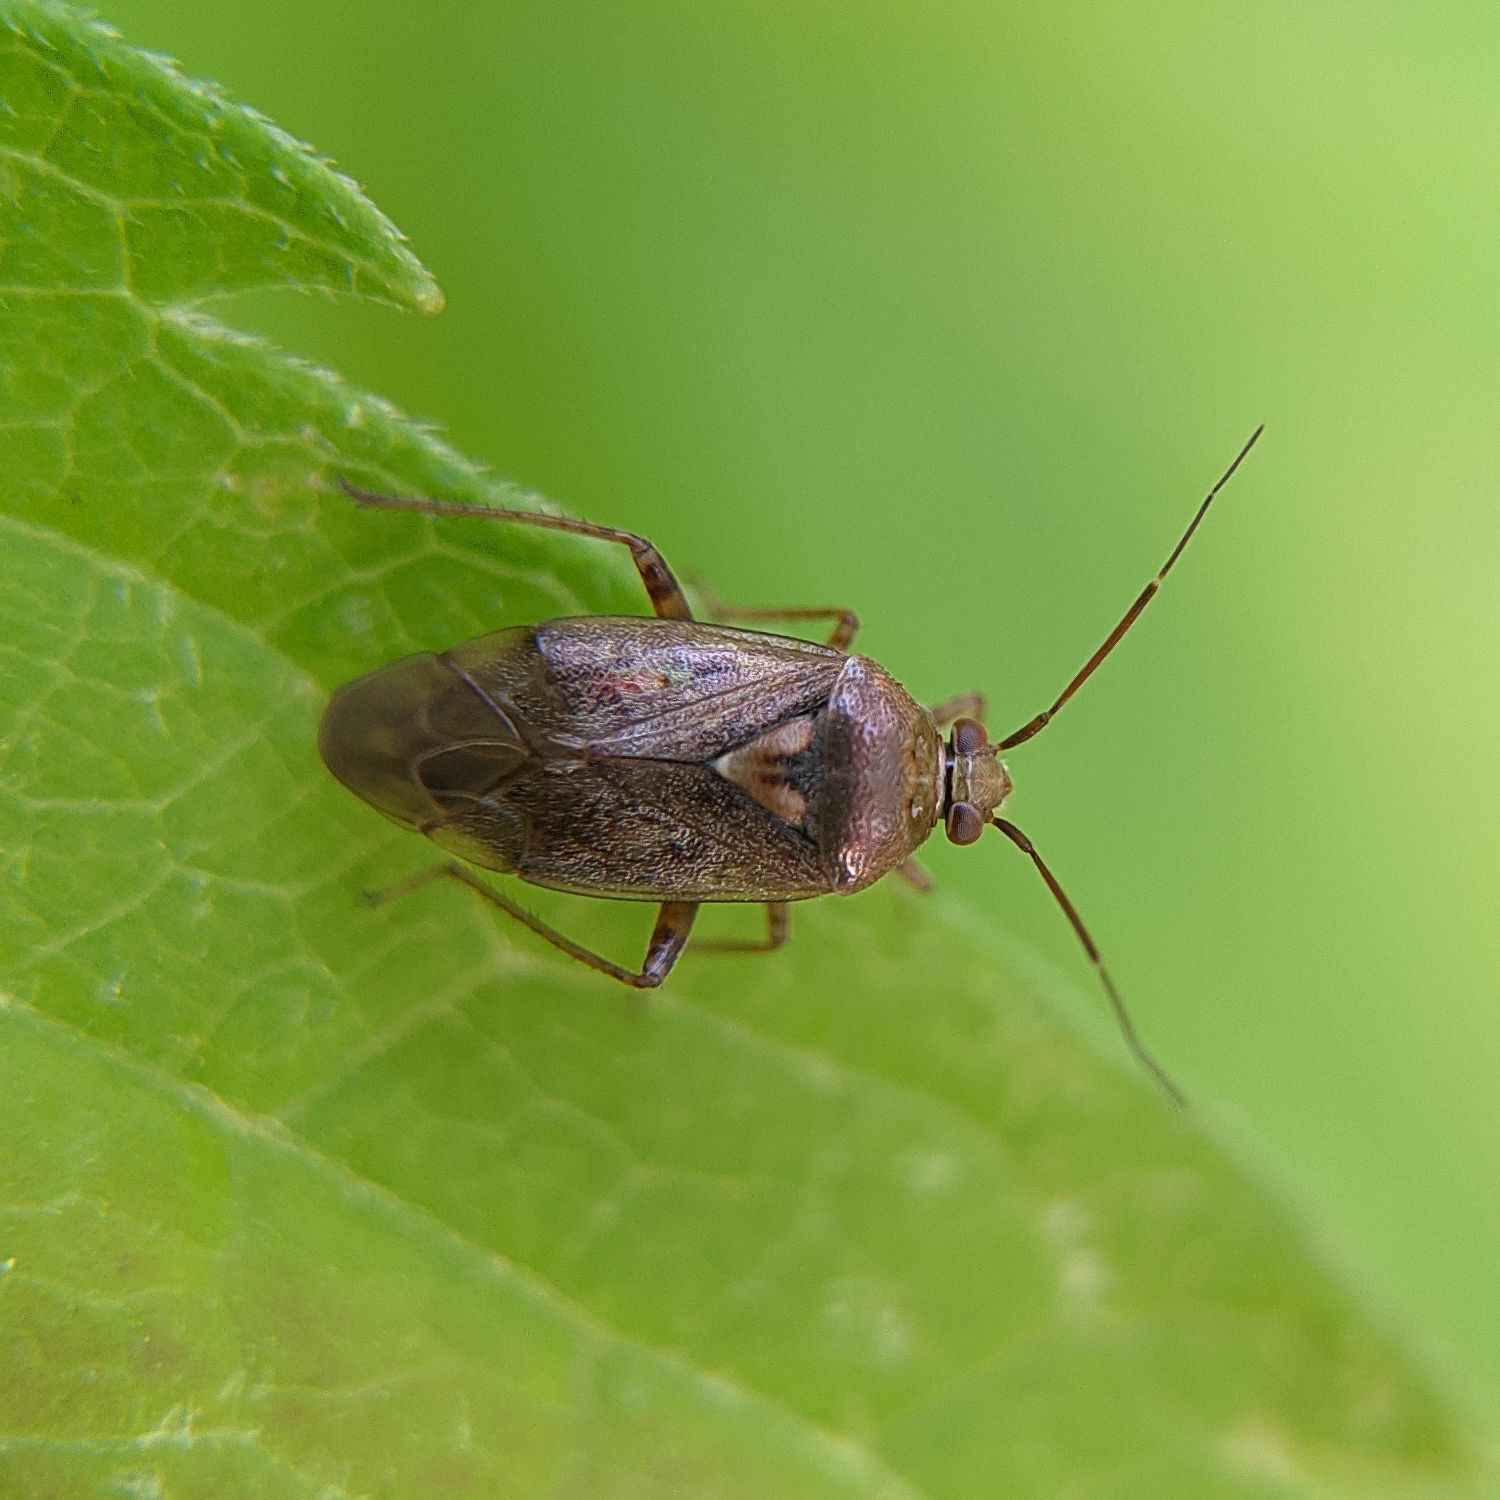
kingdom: Animalia
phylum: Arthropoda
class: Insecta
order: Hemiptera
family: Miridae
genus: Lygus
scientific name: Lygus rugulipennis
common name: European tarnished plant bug
